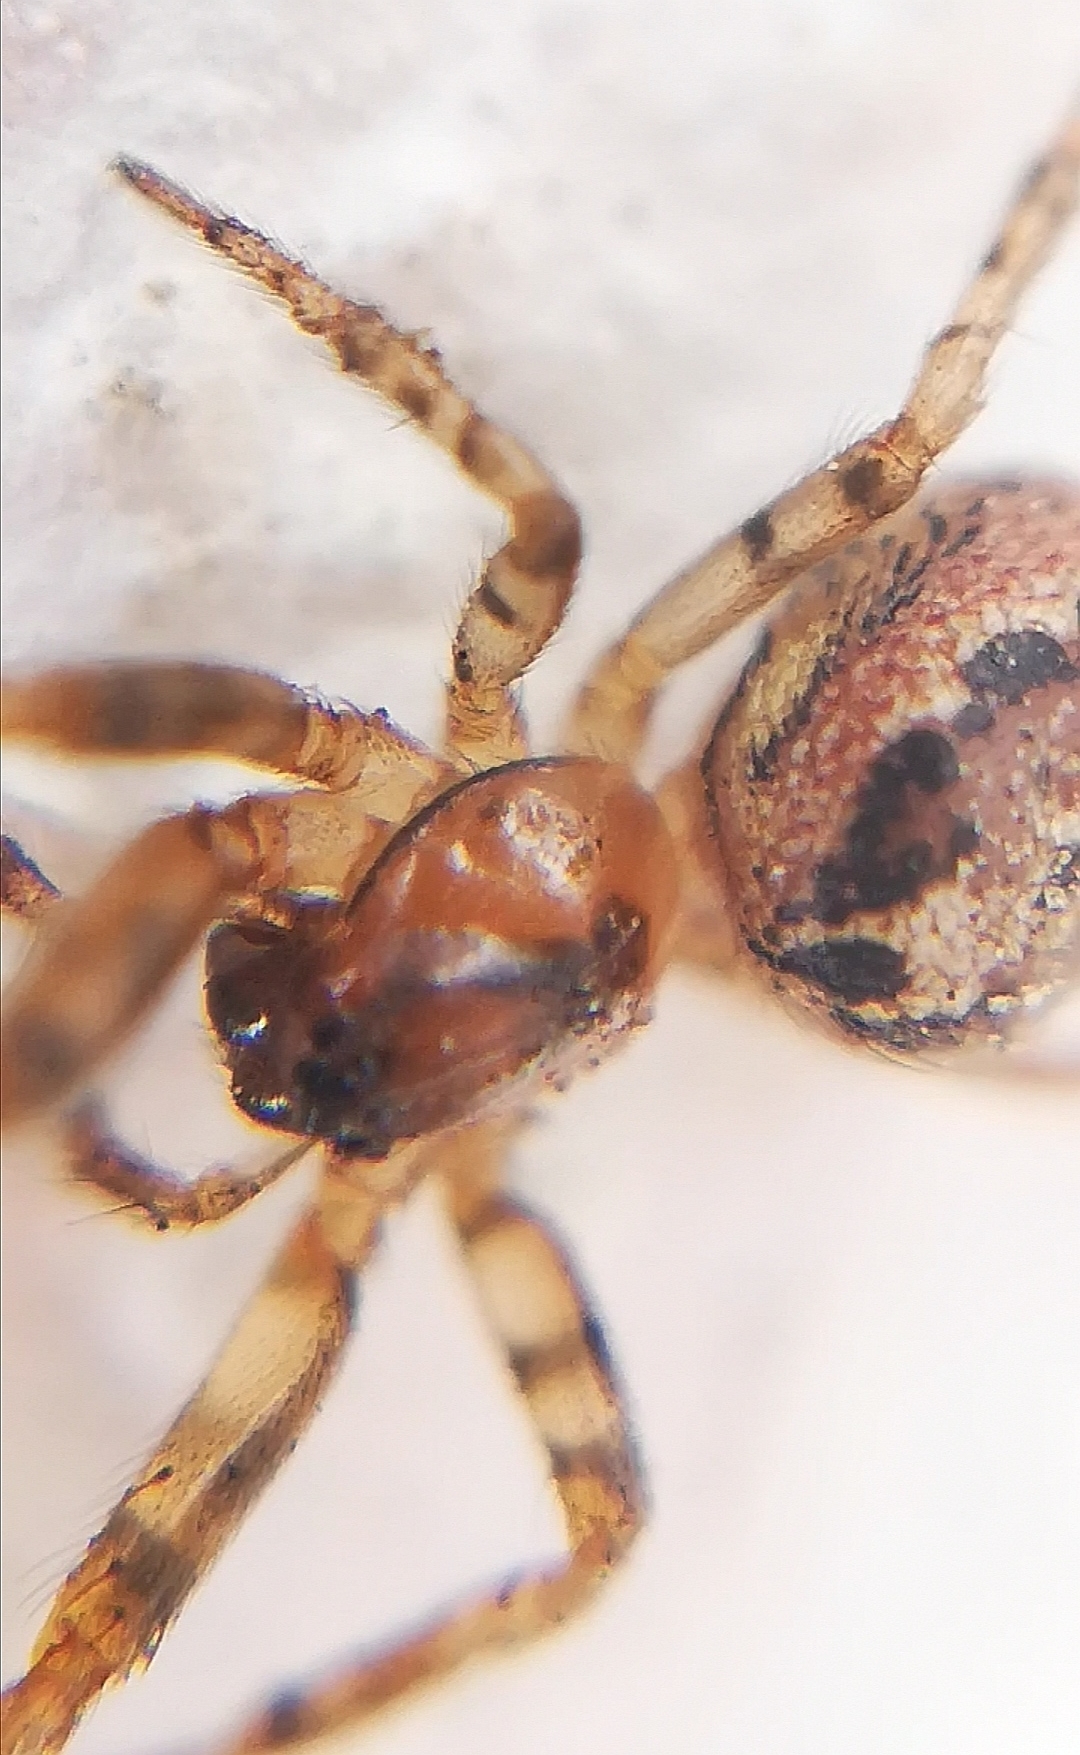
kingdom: Animalia
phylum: Arthropoda
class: Arachnida
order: Araneae
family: Araneidae
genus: Zygiella
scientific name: Zygiella x-notata
